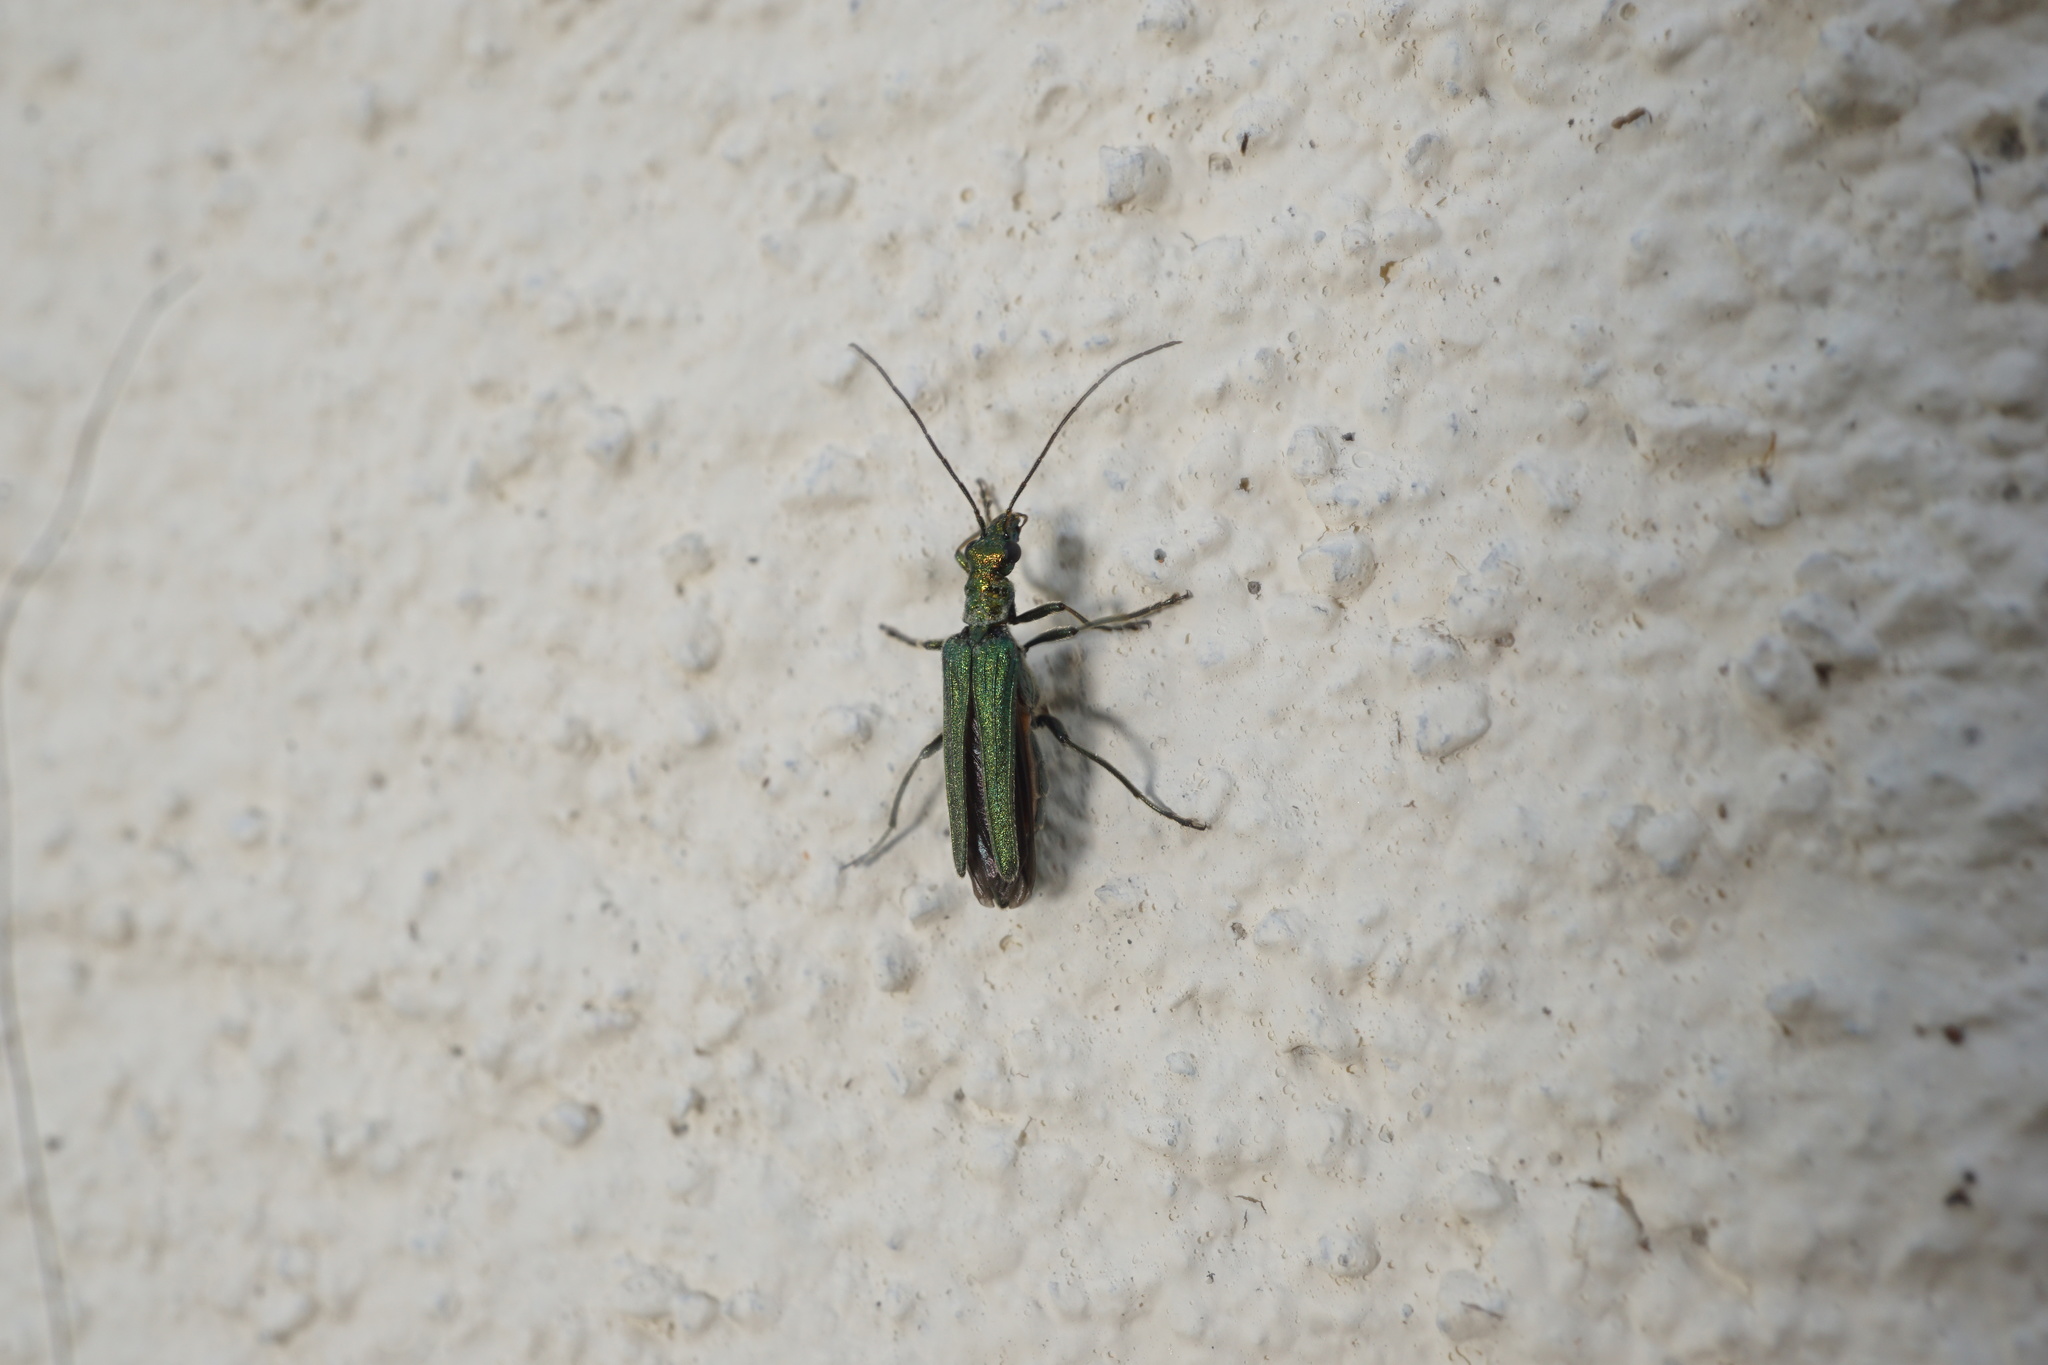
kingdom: Animalia
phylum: Arthropoda
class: Insecta
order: Coleoptera
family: Oedemeridae
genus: Oedemera
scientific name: Oedemera nobilis
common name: Swollen-thighed beetle
